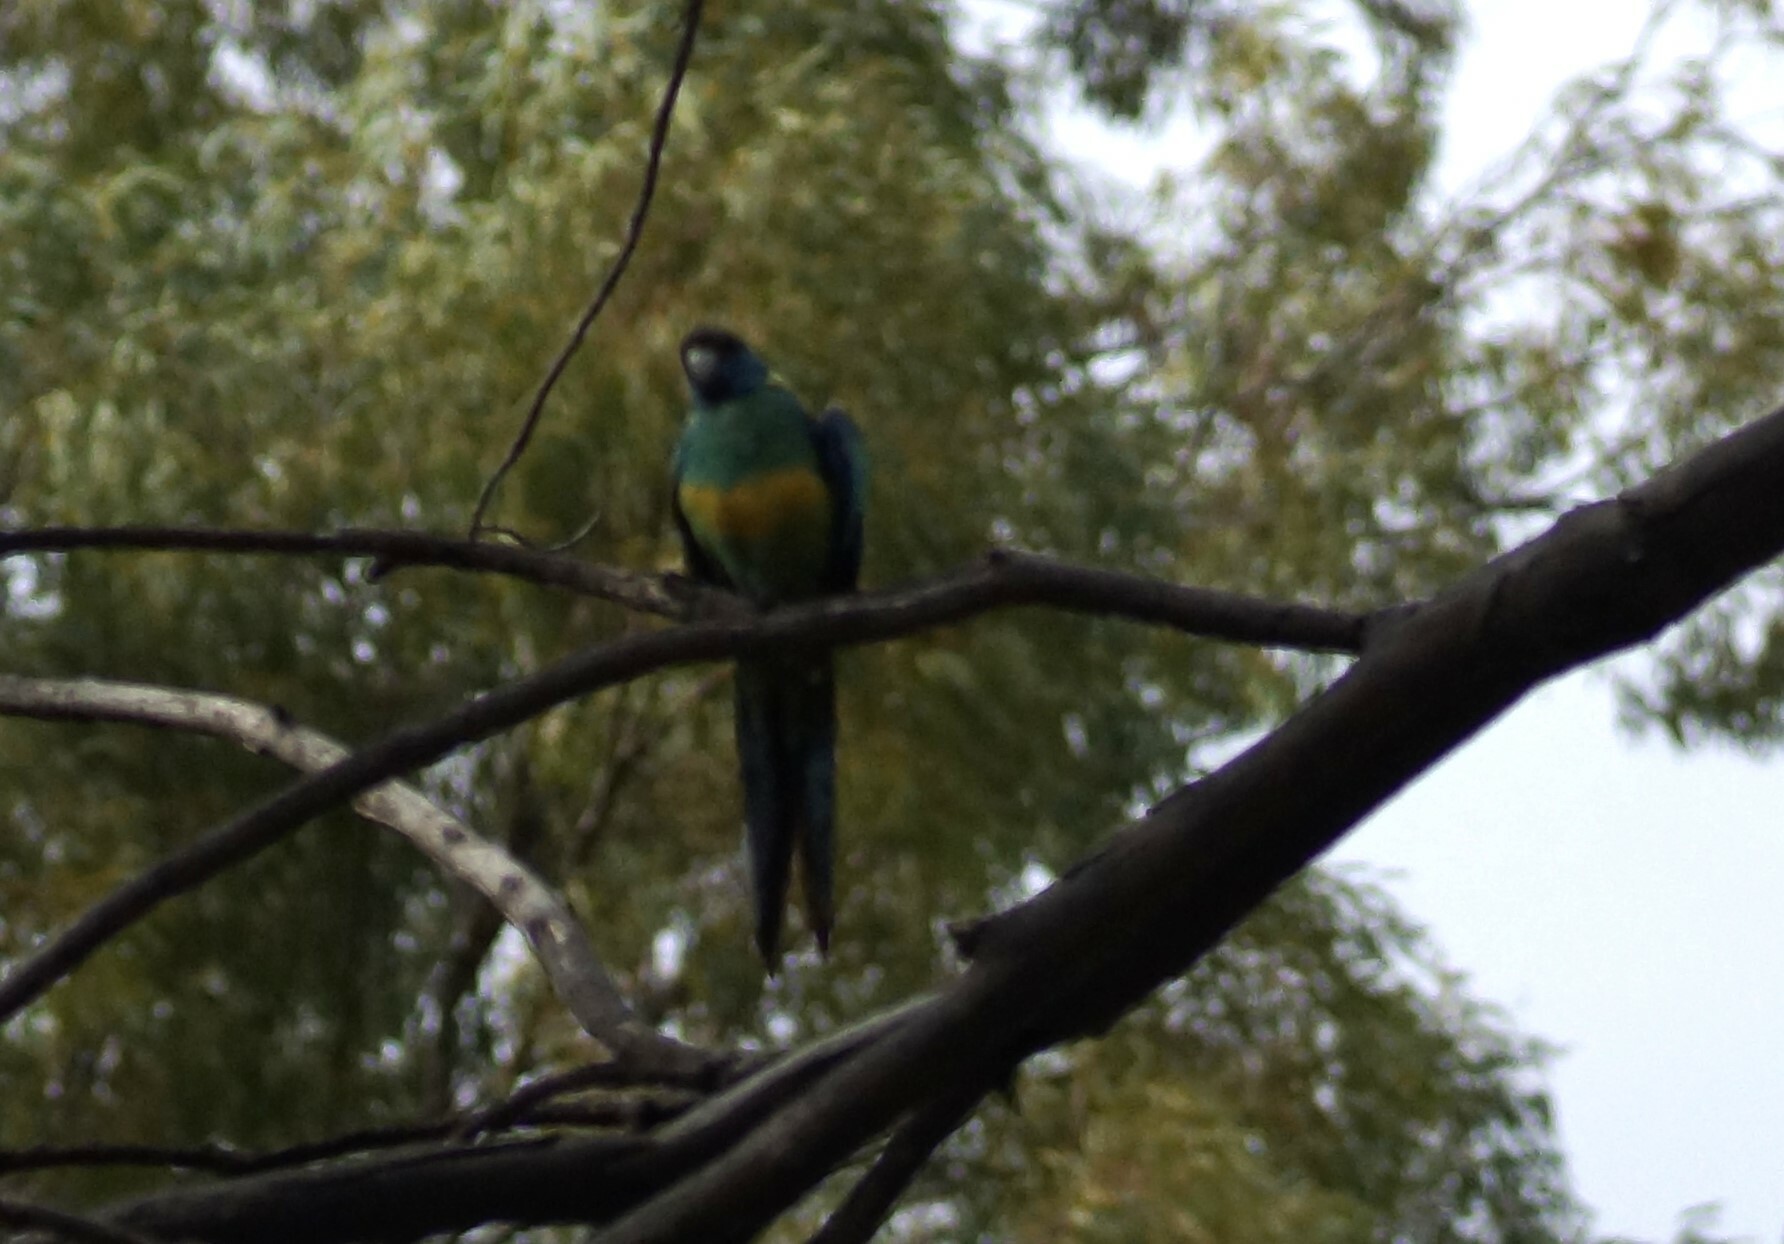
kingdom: Animalia
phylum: Chordata
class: Aves
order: Psittaciformes
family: Psittacidae
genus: Barnardius
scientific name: Barnardius zonarius
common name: Australian ringneck
